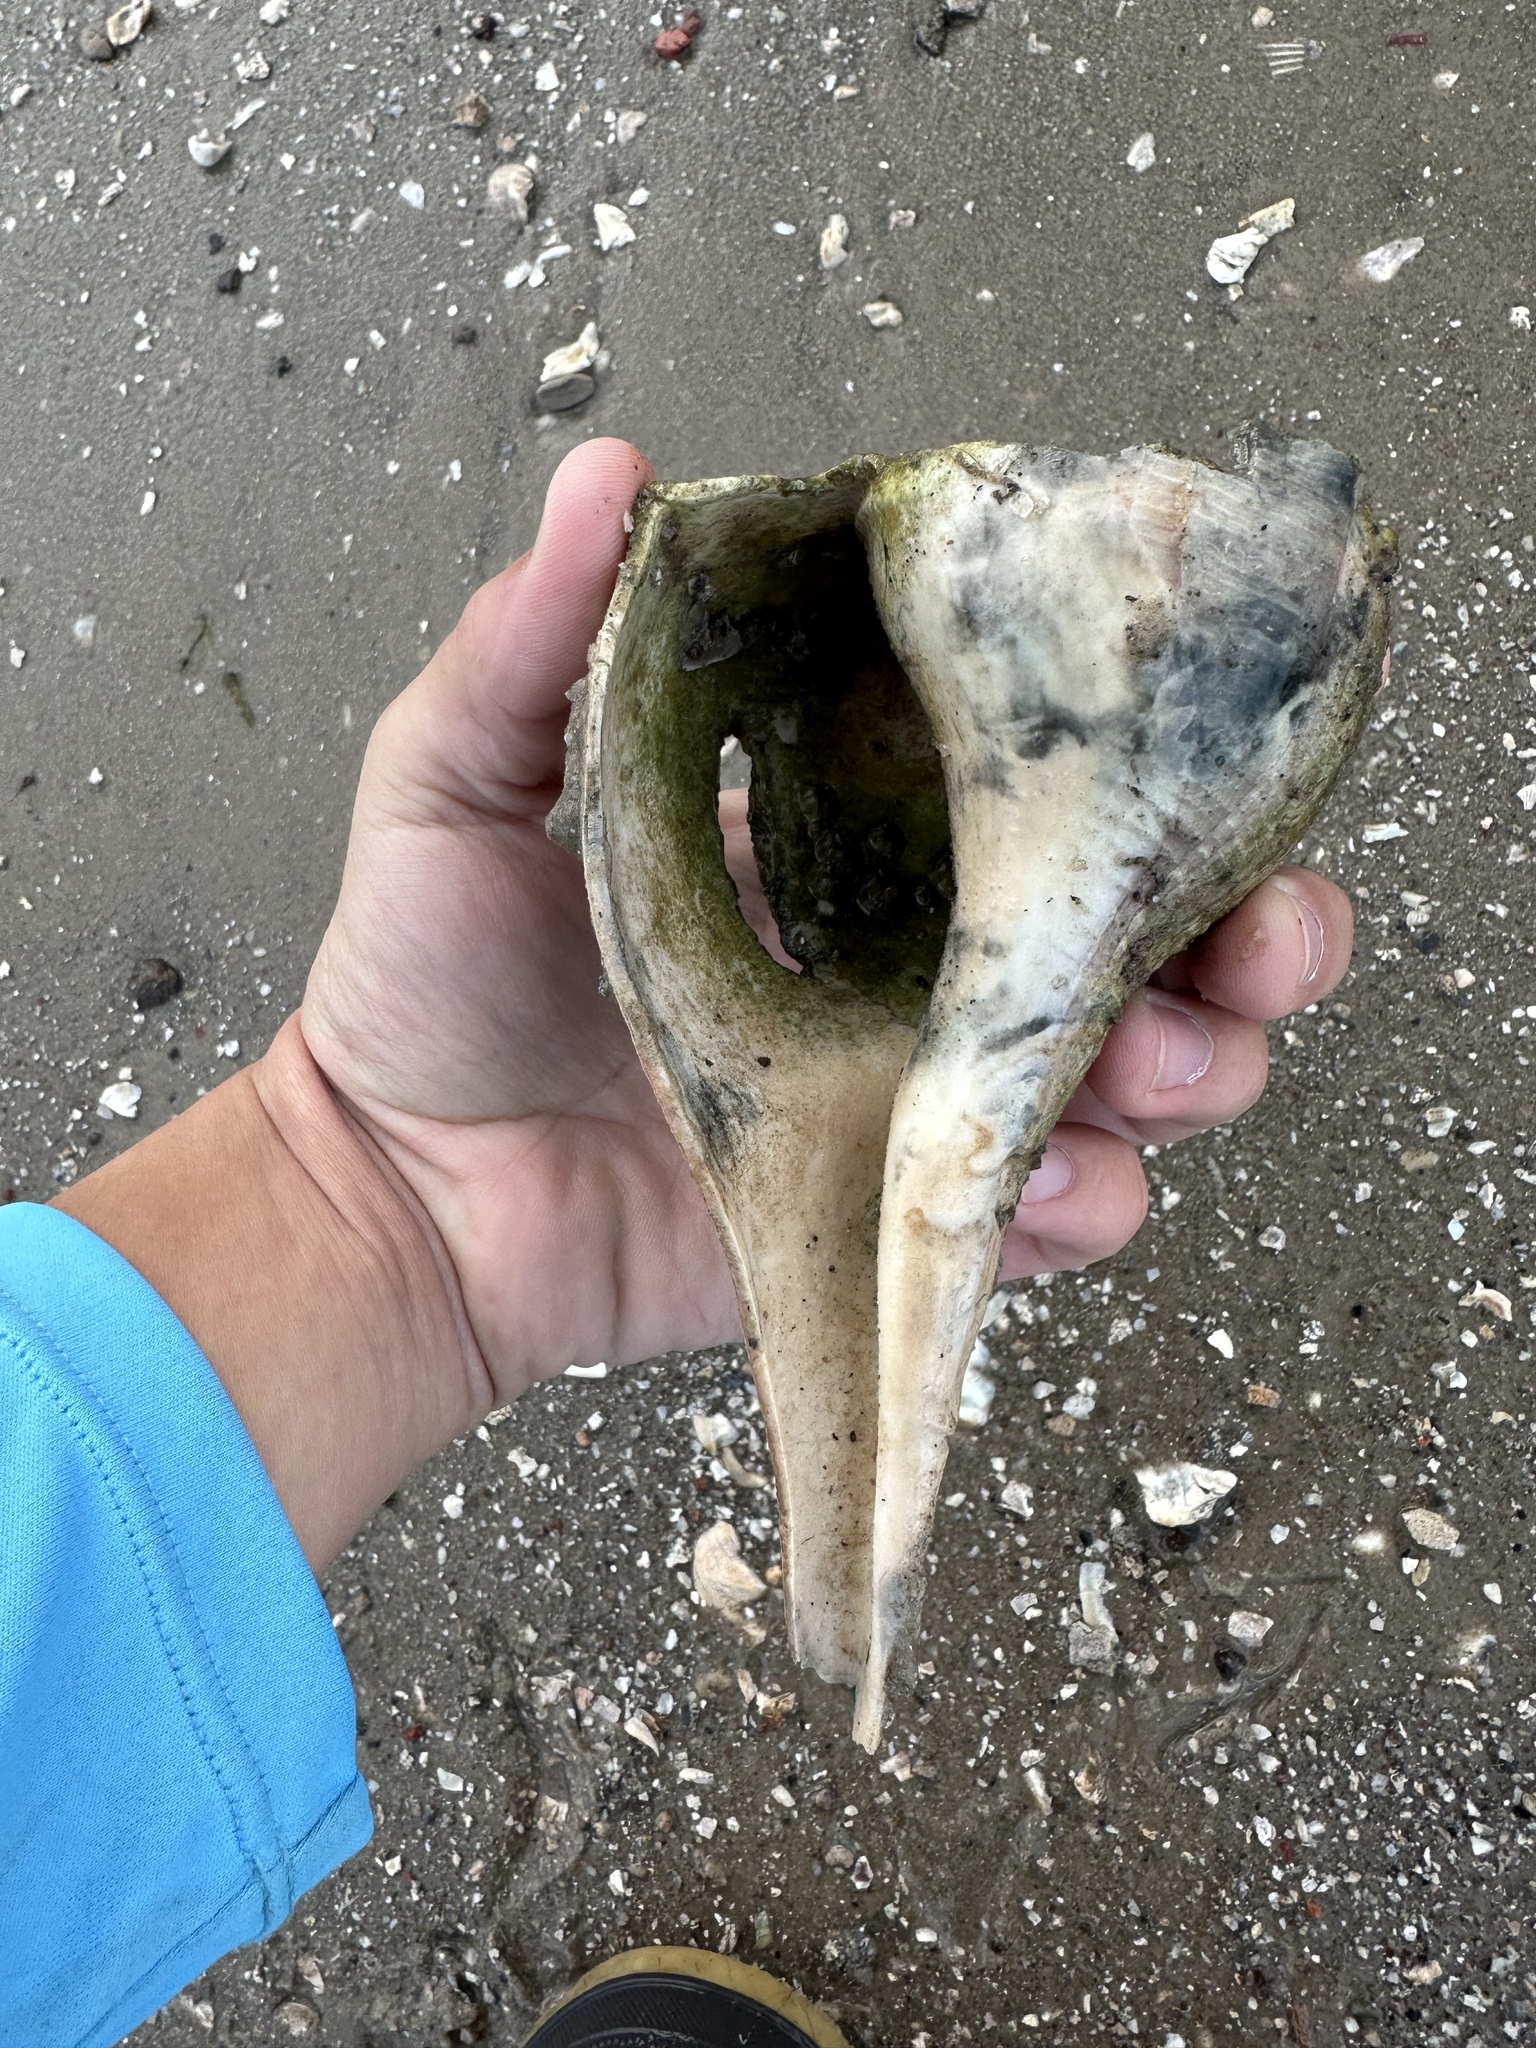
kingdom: Animalia
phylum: Mollusca
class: Gastropoda
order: Neogastropoda
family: Busyconidae
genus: Sinistrofulgur
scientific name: Sinistrofulgur sinistrum
